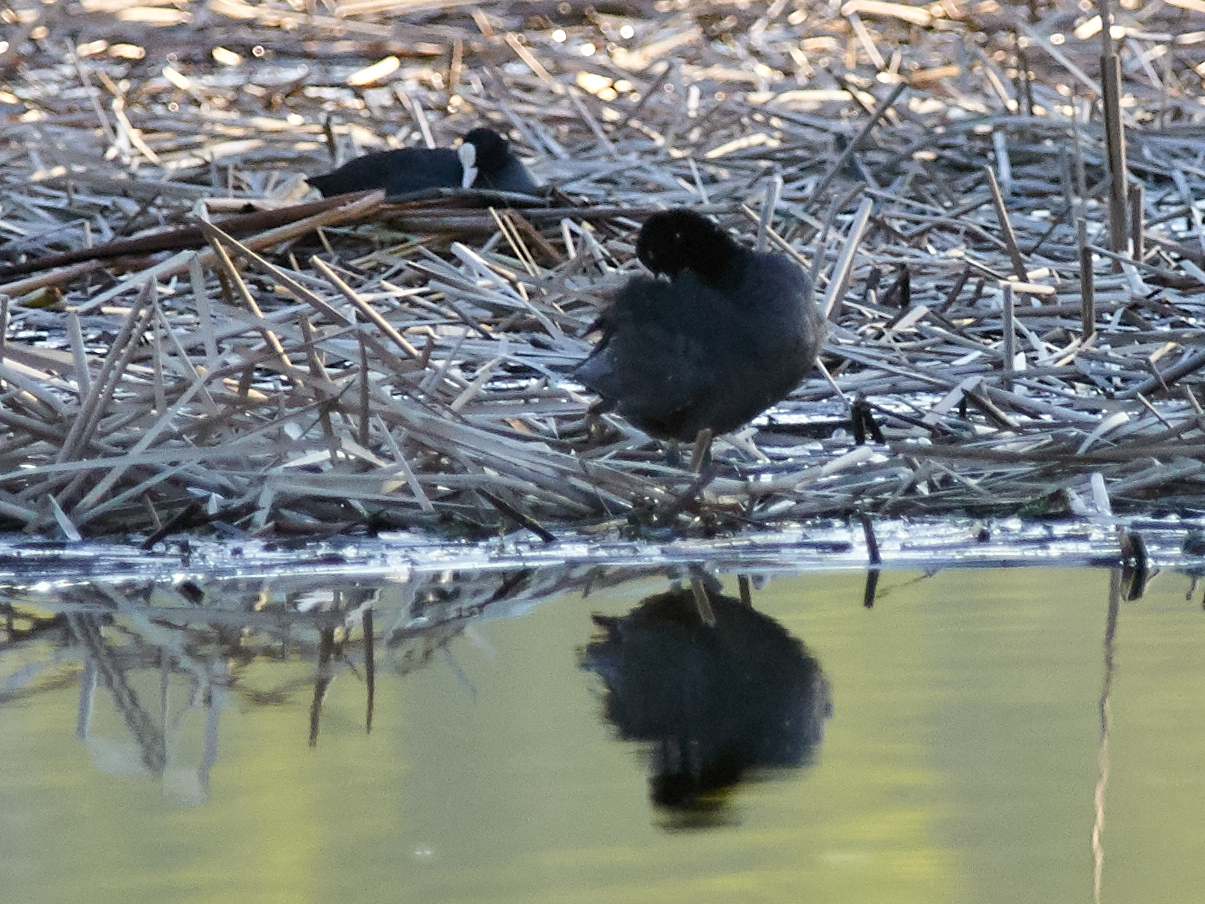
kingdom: Animalia
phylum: Chordata
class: Aves
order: Gruiformes
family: Rallidae
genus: Fulica
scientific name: Fulica atra
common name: Eurasian coot
